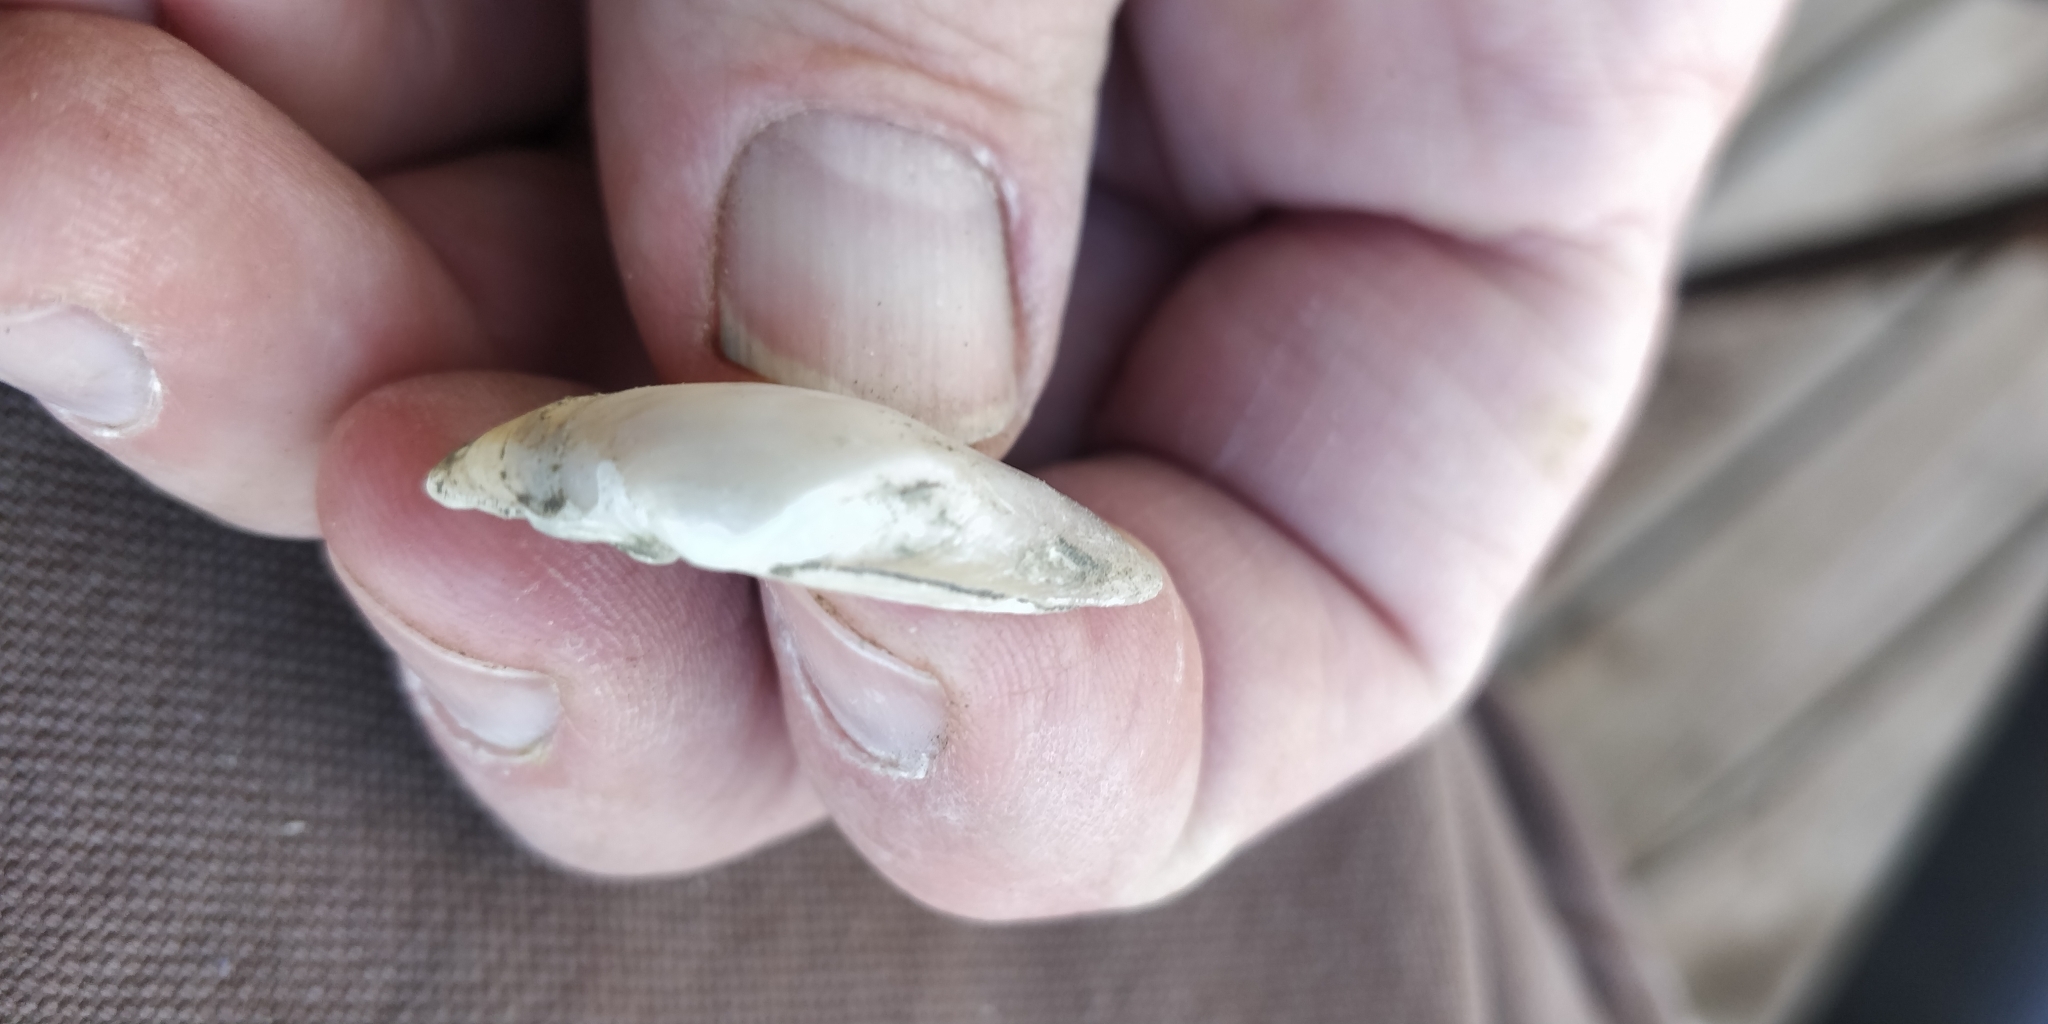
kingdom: Animalia
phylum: Mollusca
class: Bivalvia
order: Unionida
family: Unionidae
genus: Truncilla
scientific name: Truncilla donaciformis
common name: Fawnsfoot
